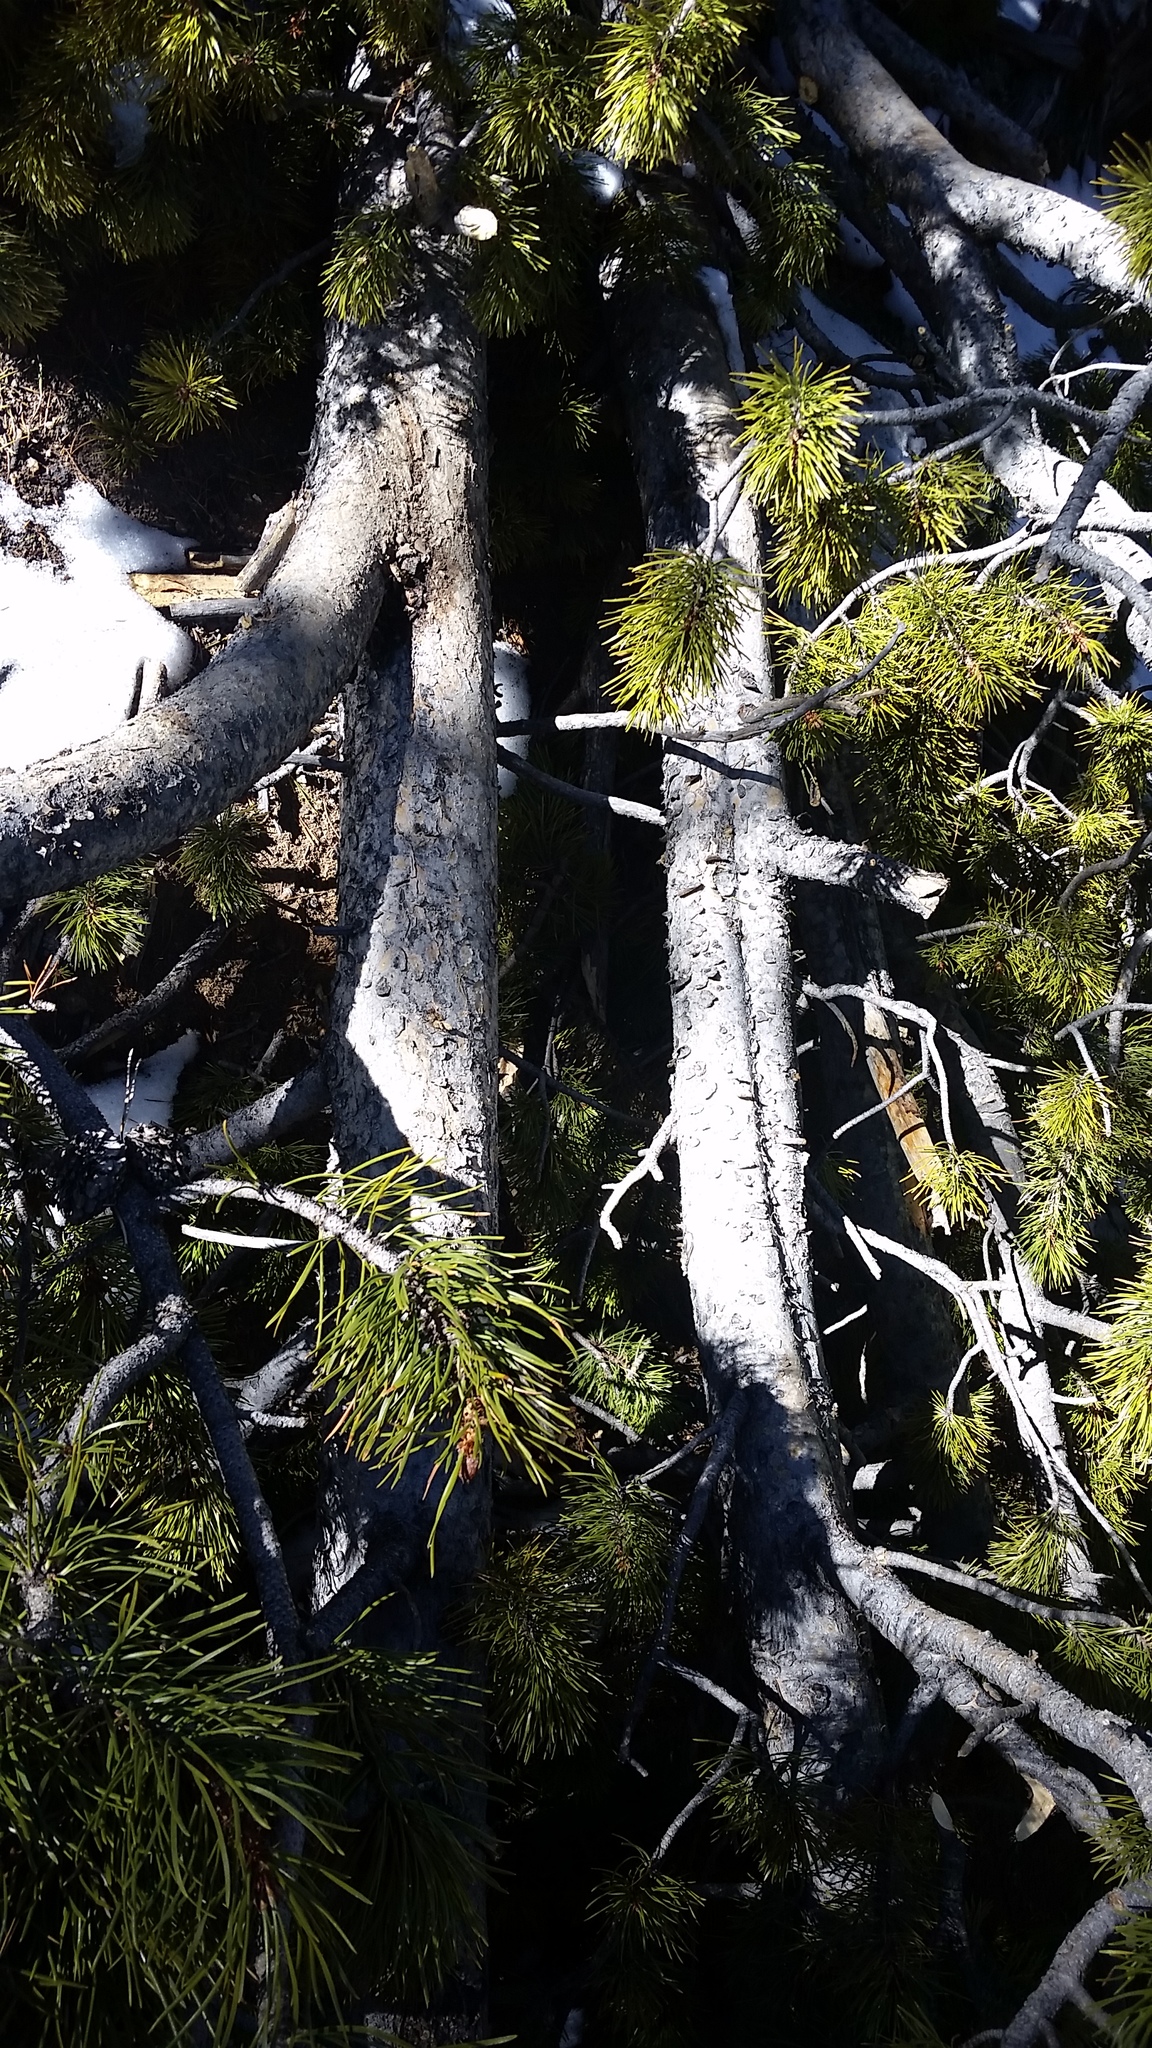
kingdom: Plantae
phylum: Tracheophyta
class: Pinopsida
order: Pinales
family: Pinaceae
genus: Pinus
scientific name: Pinus contorta
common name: Lodgepole pine
